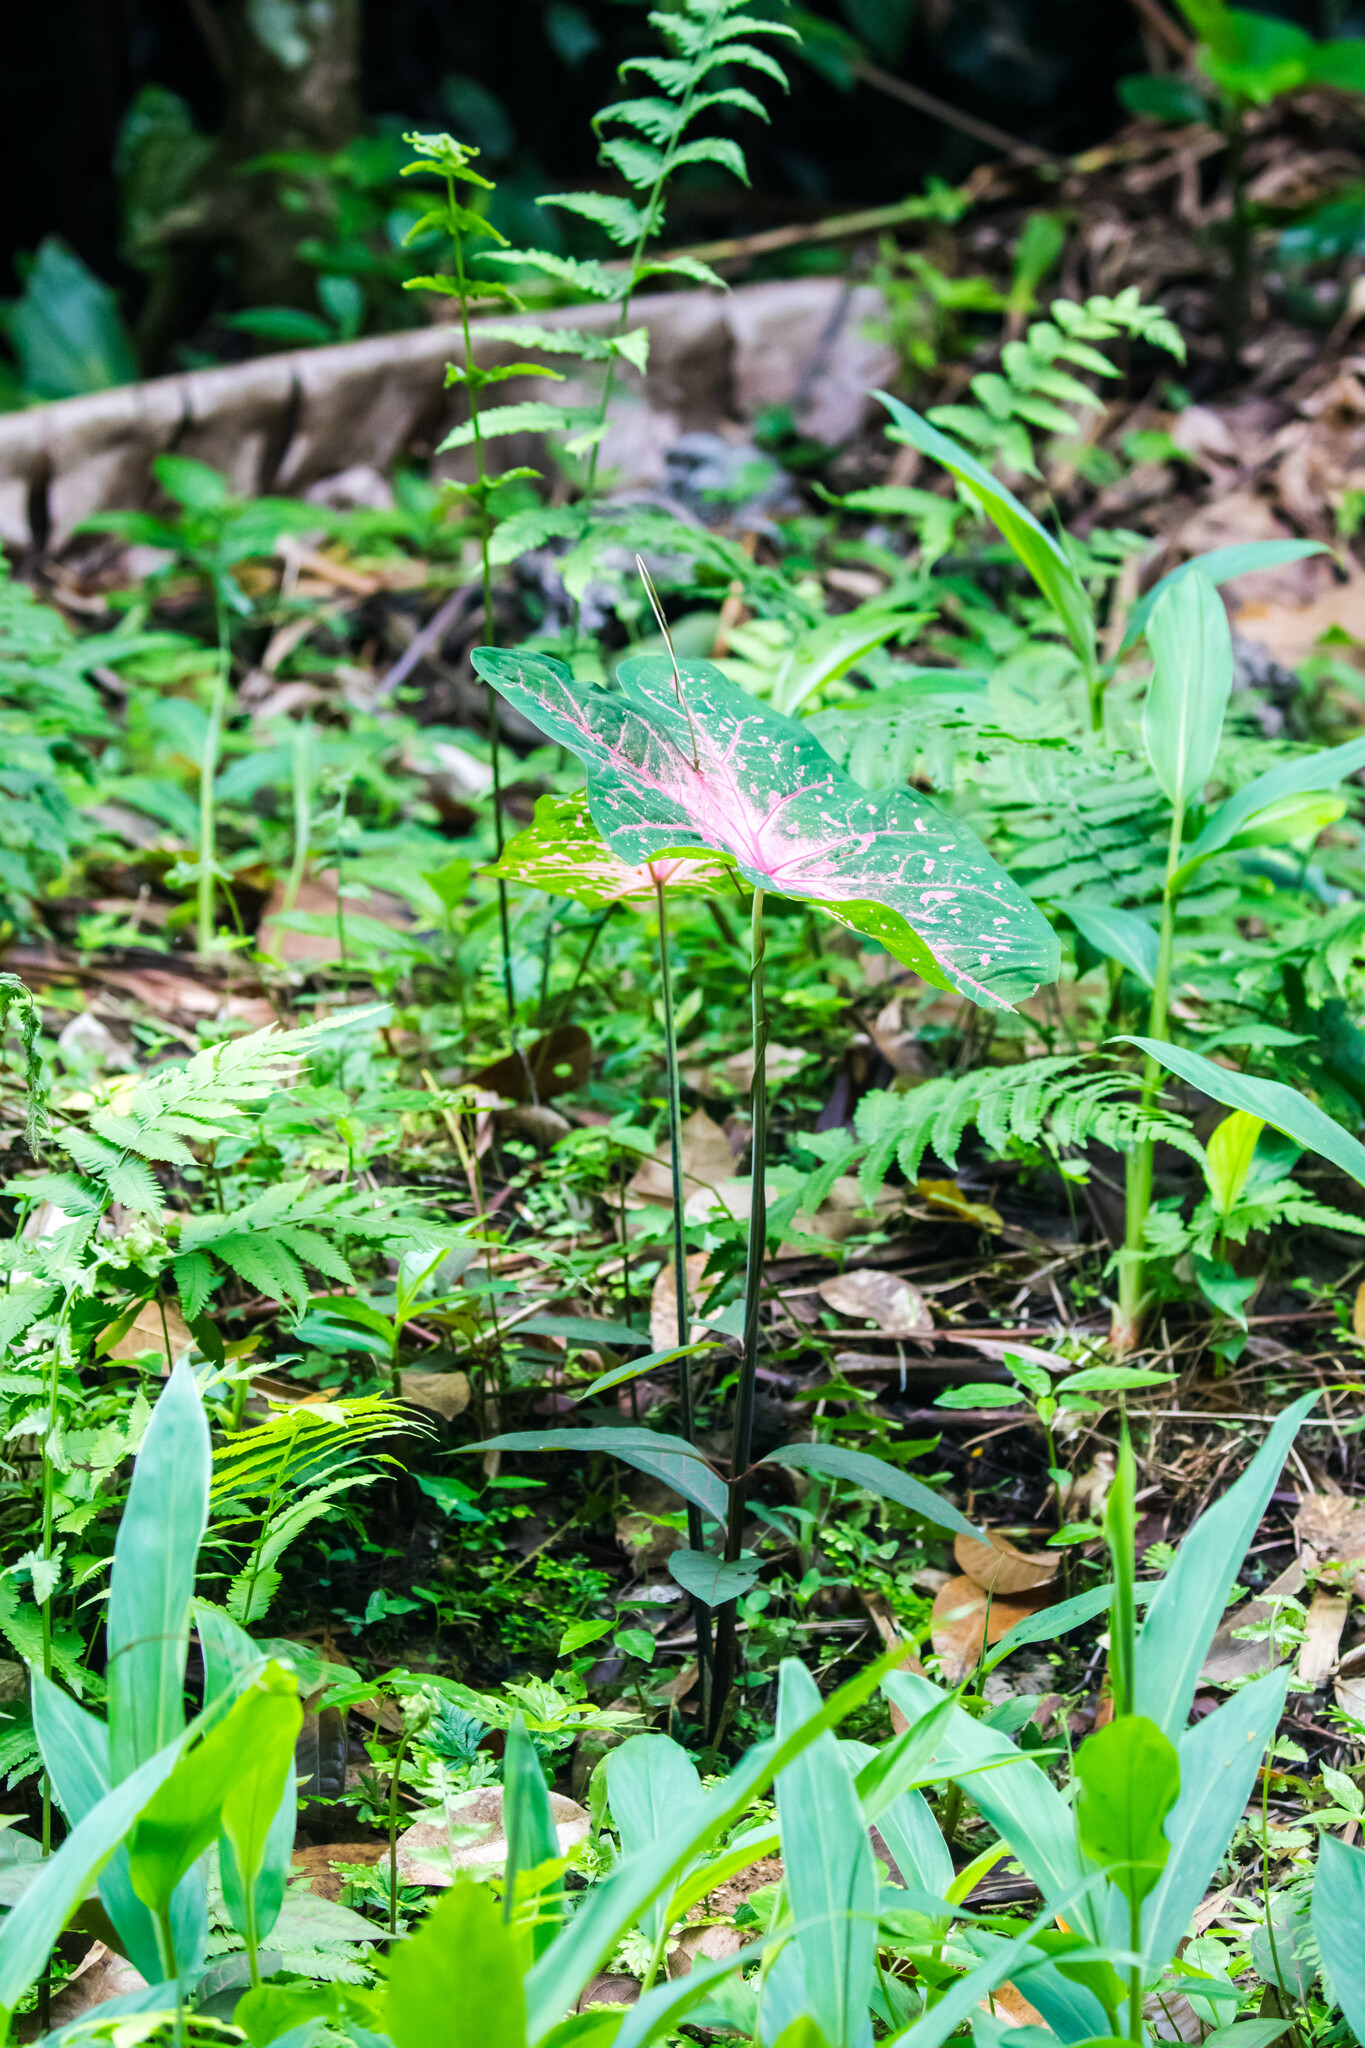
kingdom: Plantae
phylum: Tracheophyta
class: Liliopsida
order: Alismatales
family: Araceae
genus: Caladium
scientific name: Caladium bicolor
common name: Artist's pallet
